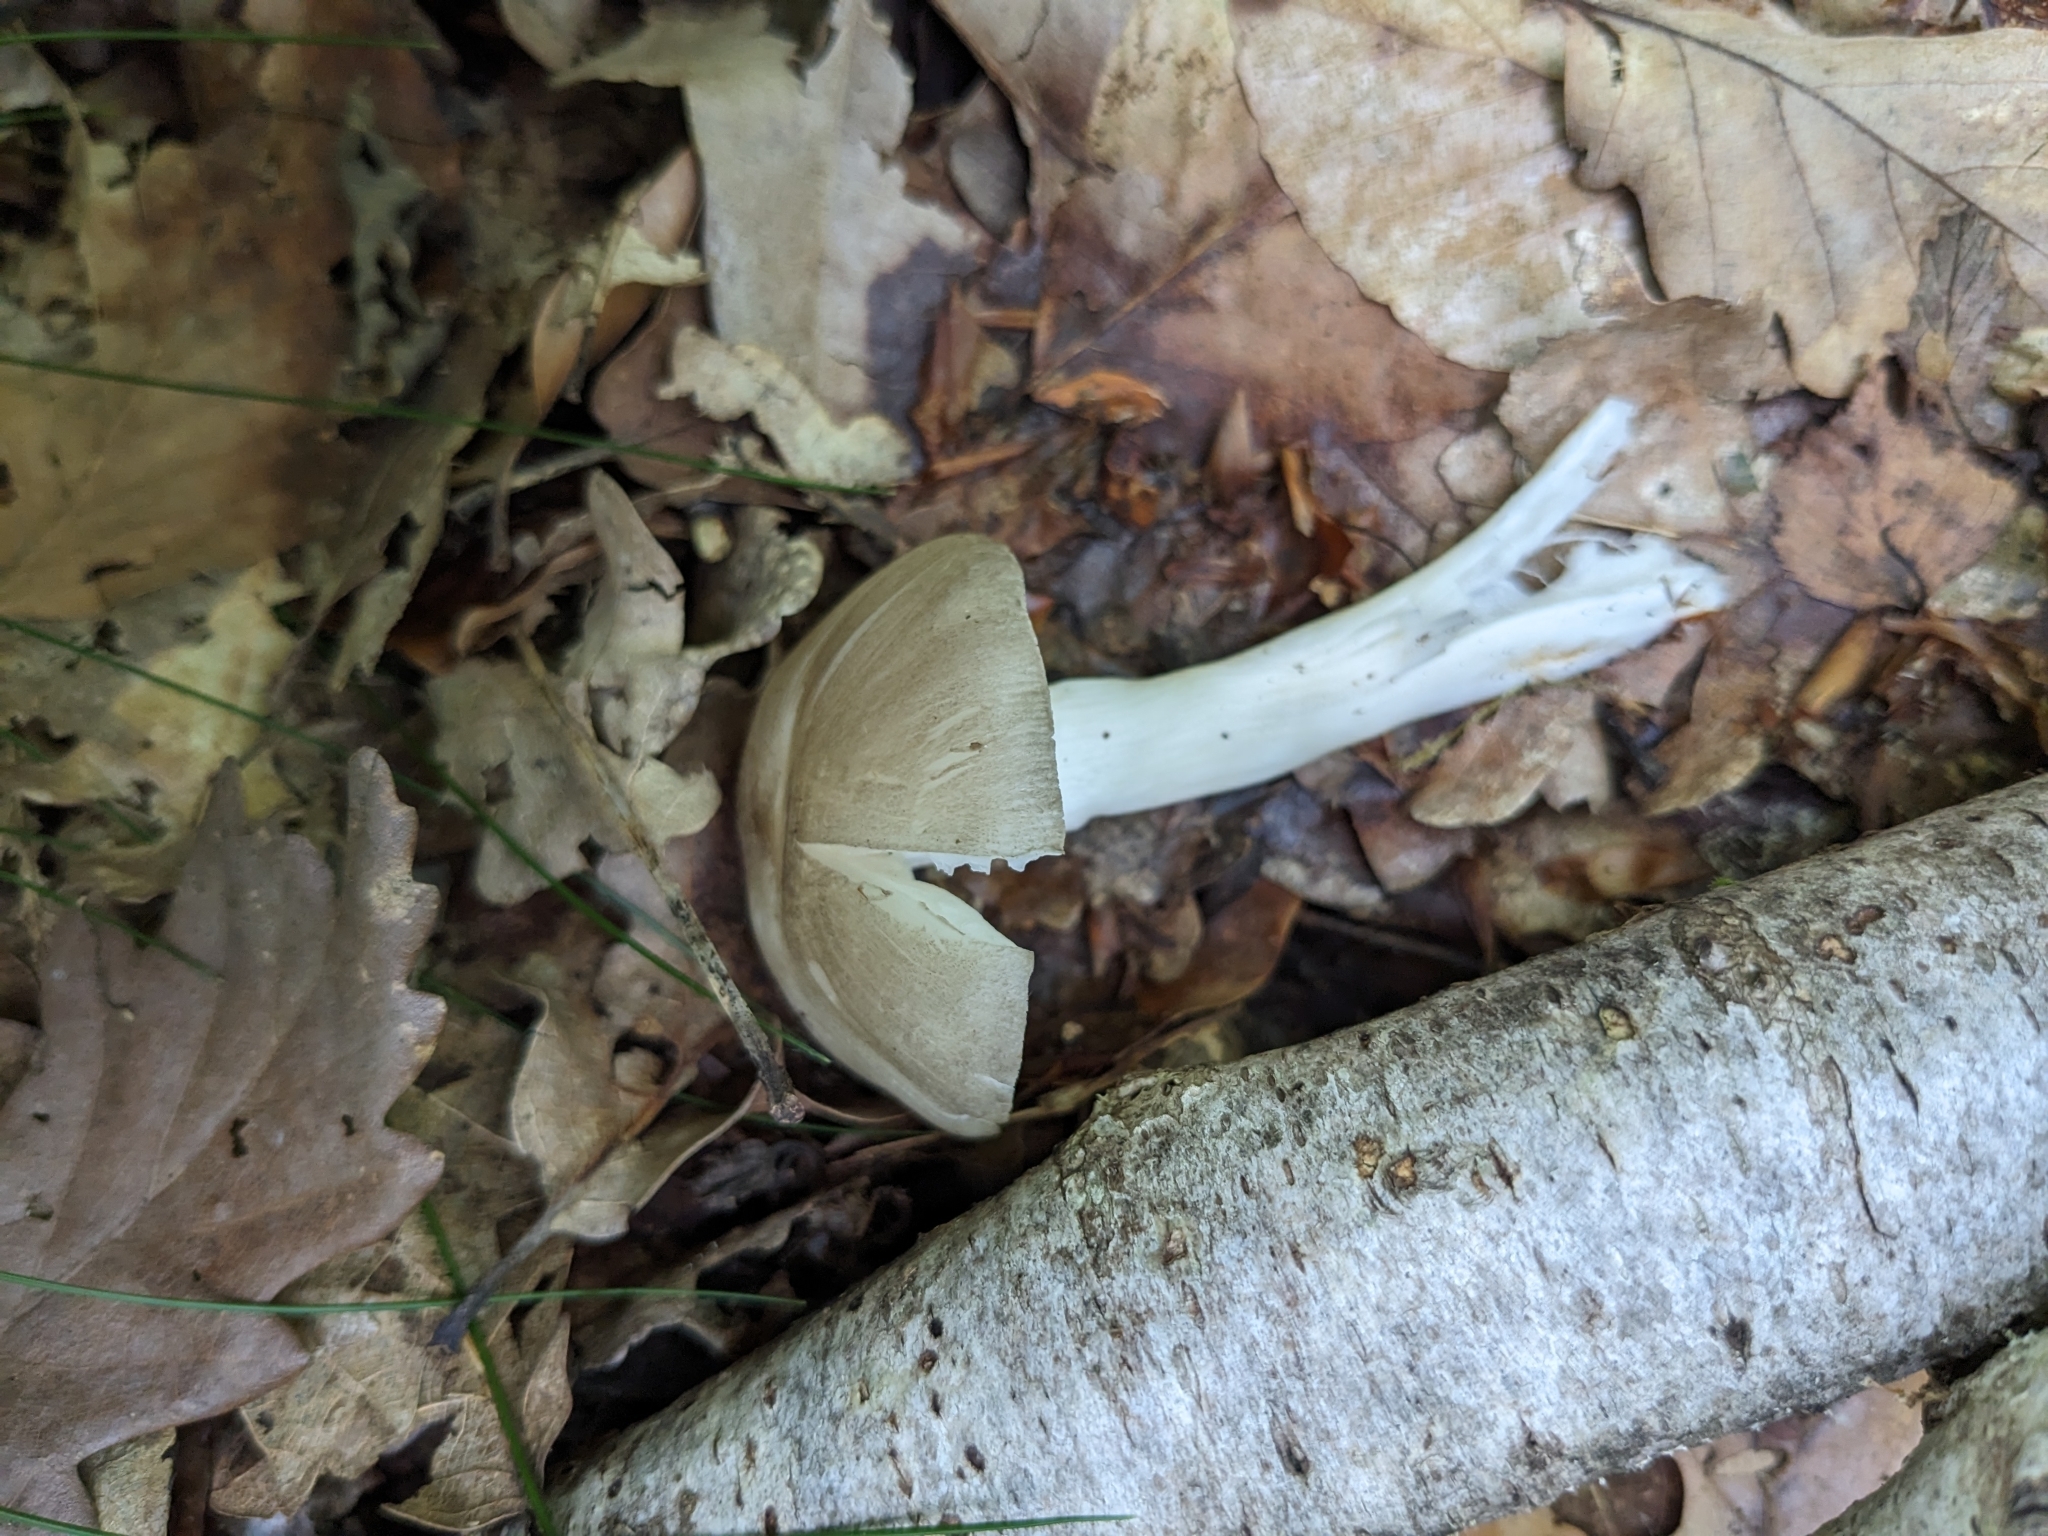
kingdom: Fungi
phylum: Basidiomycota
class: Agaricomycetes
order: Agaricales
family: Tricholomataceae
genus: Megacollybia
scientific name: Megacollybia platyphylla
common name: Whitelaced shank
